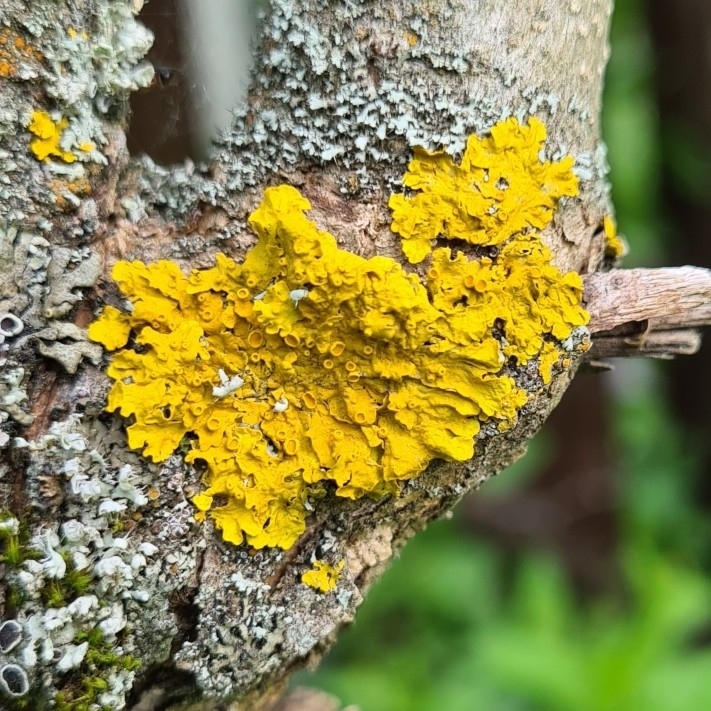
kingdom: Fungi
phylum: Ascomycota
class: Lecanoromycetes
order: Teloschistales
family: Teloschistaceae
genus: Xanthoria
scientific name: Xanthoria parietina
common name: Common orange lichen
